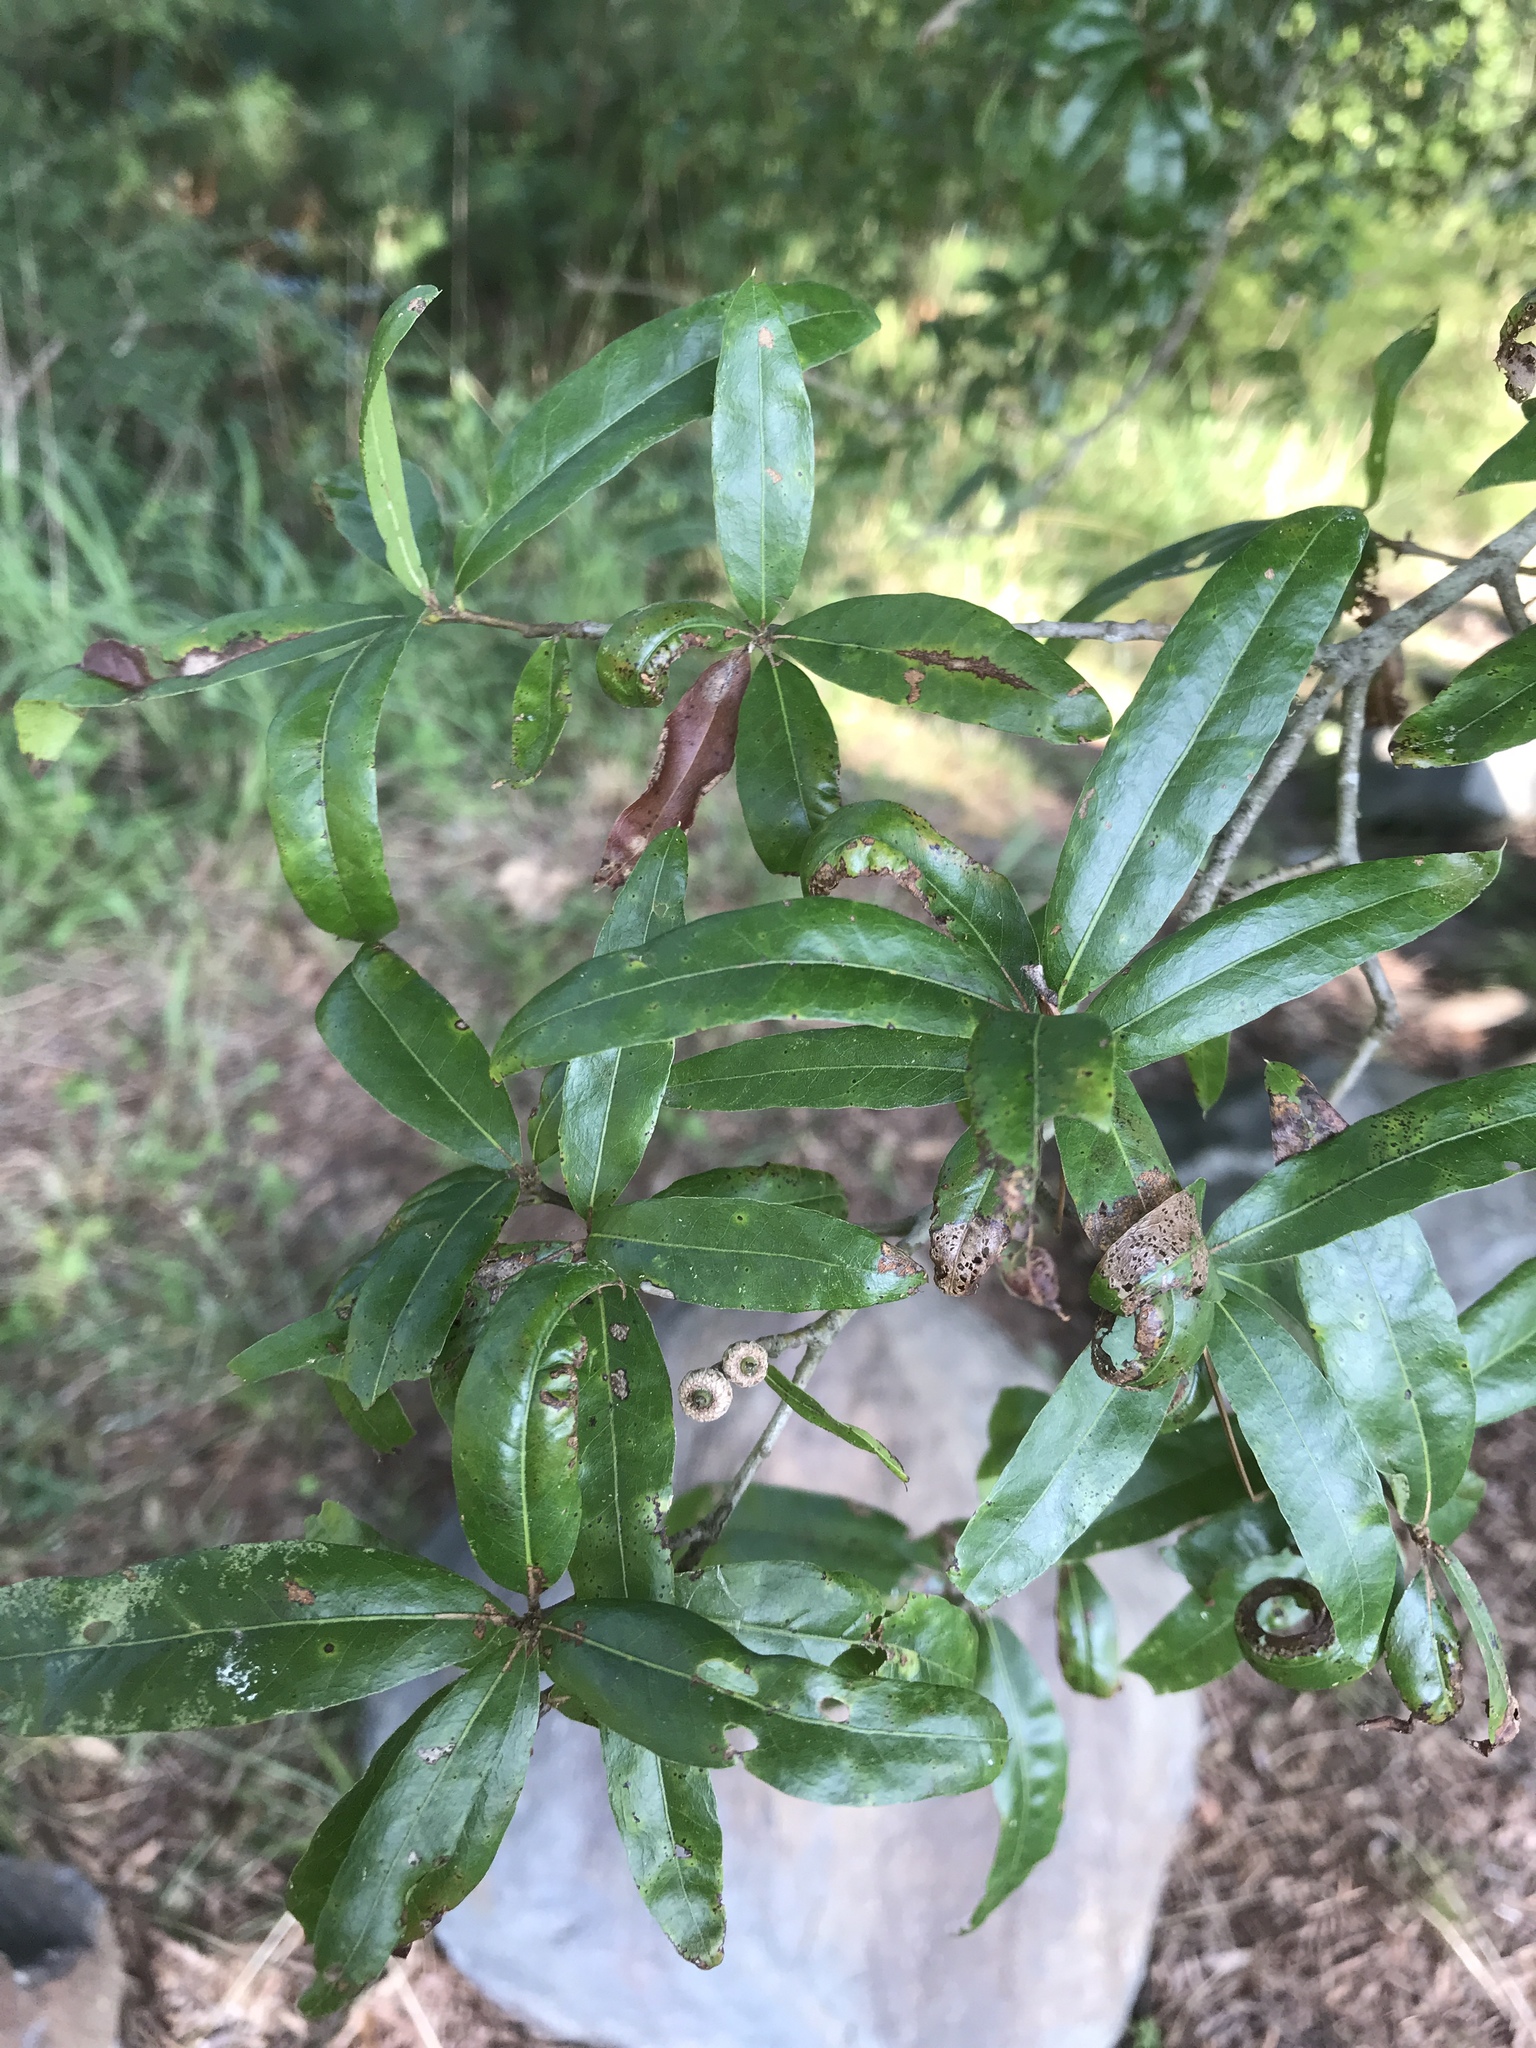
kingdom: Plantae
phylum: Tracheophyta
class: Magnoliopsida
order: Fagales
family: Fagaceae
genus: Quercus
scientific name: Quercus phellos
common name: Willow oak
